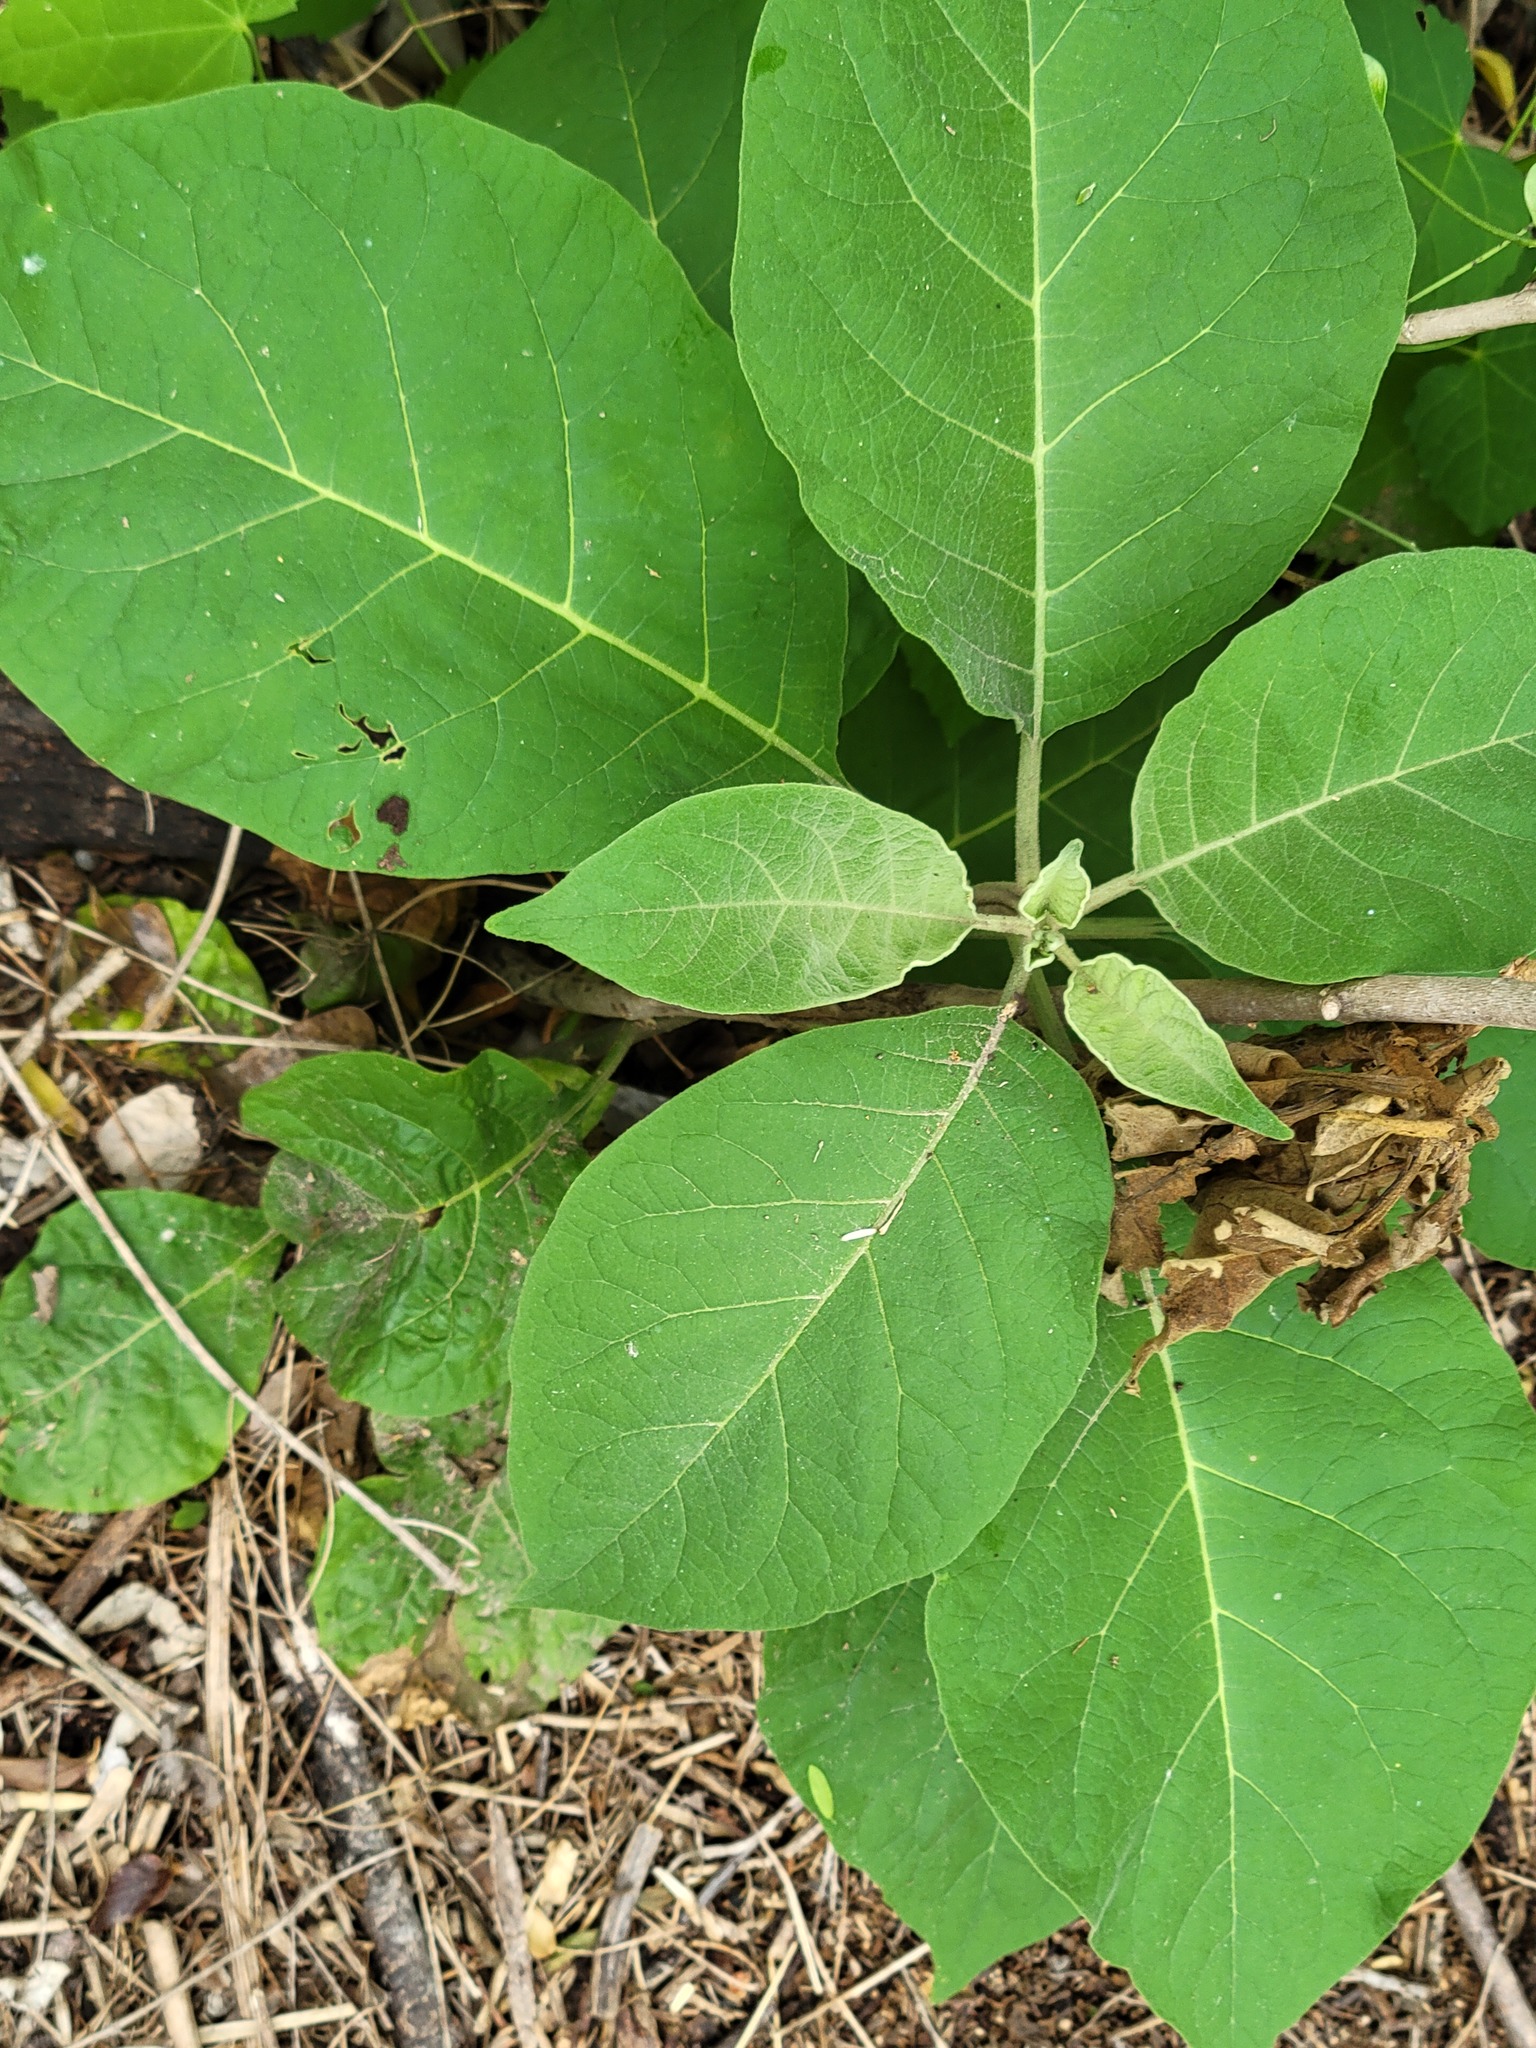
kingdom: Plantae
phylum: Tracheophyta
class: Magnoliopsida
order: Solanales
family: Solanaceae
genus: Solanum
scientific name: Solanum erianthum
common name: Tobacco-tree
